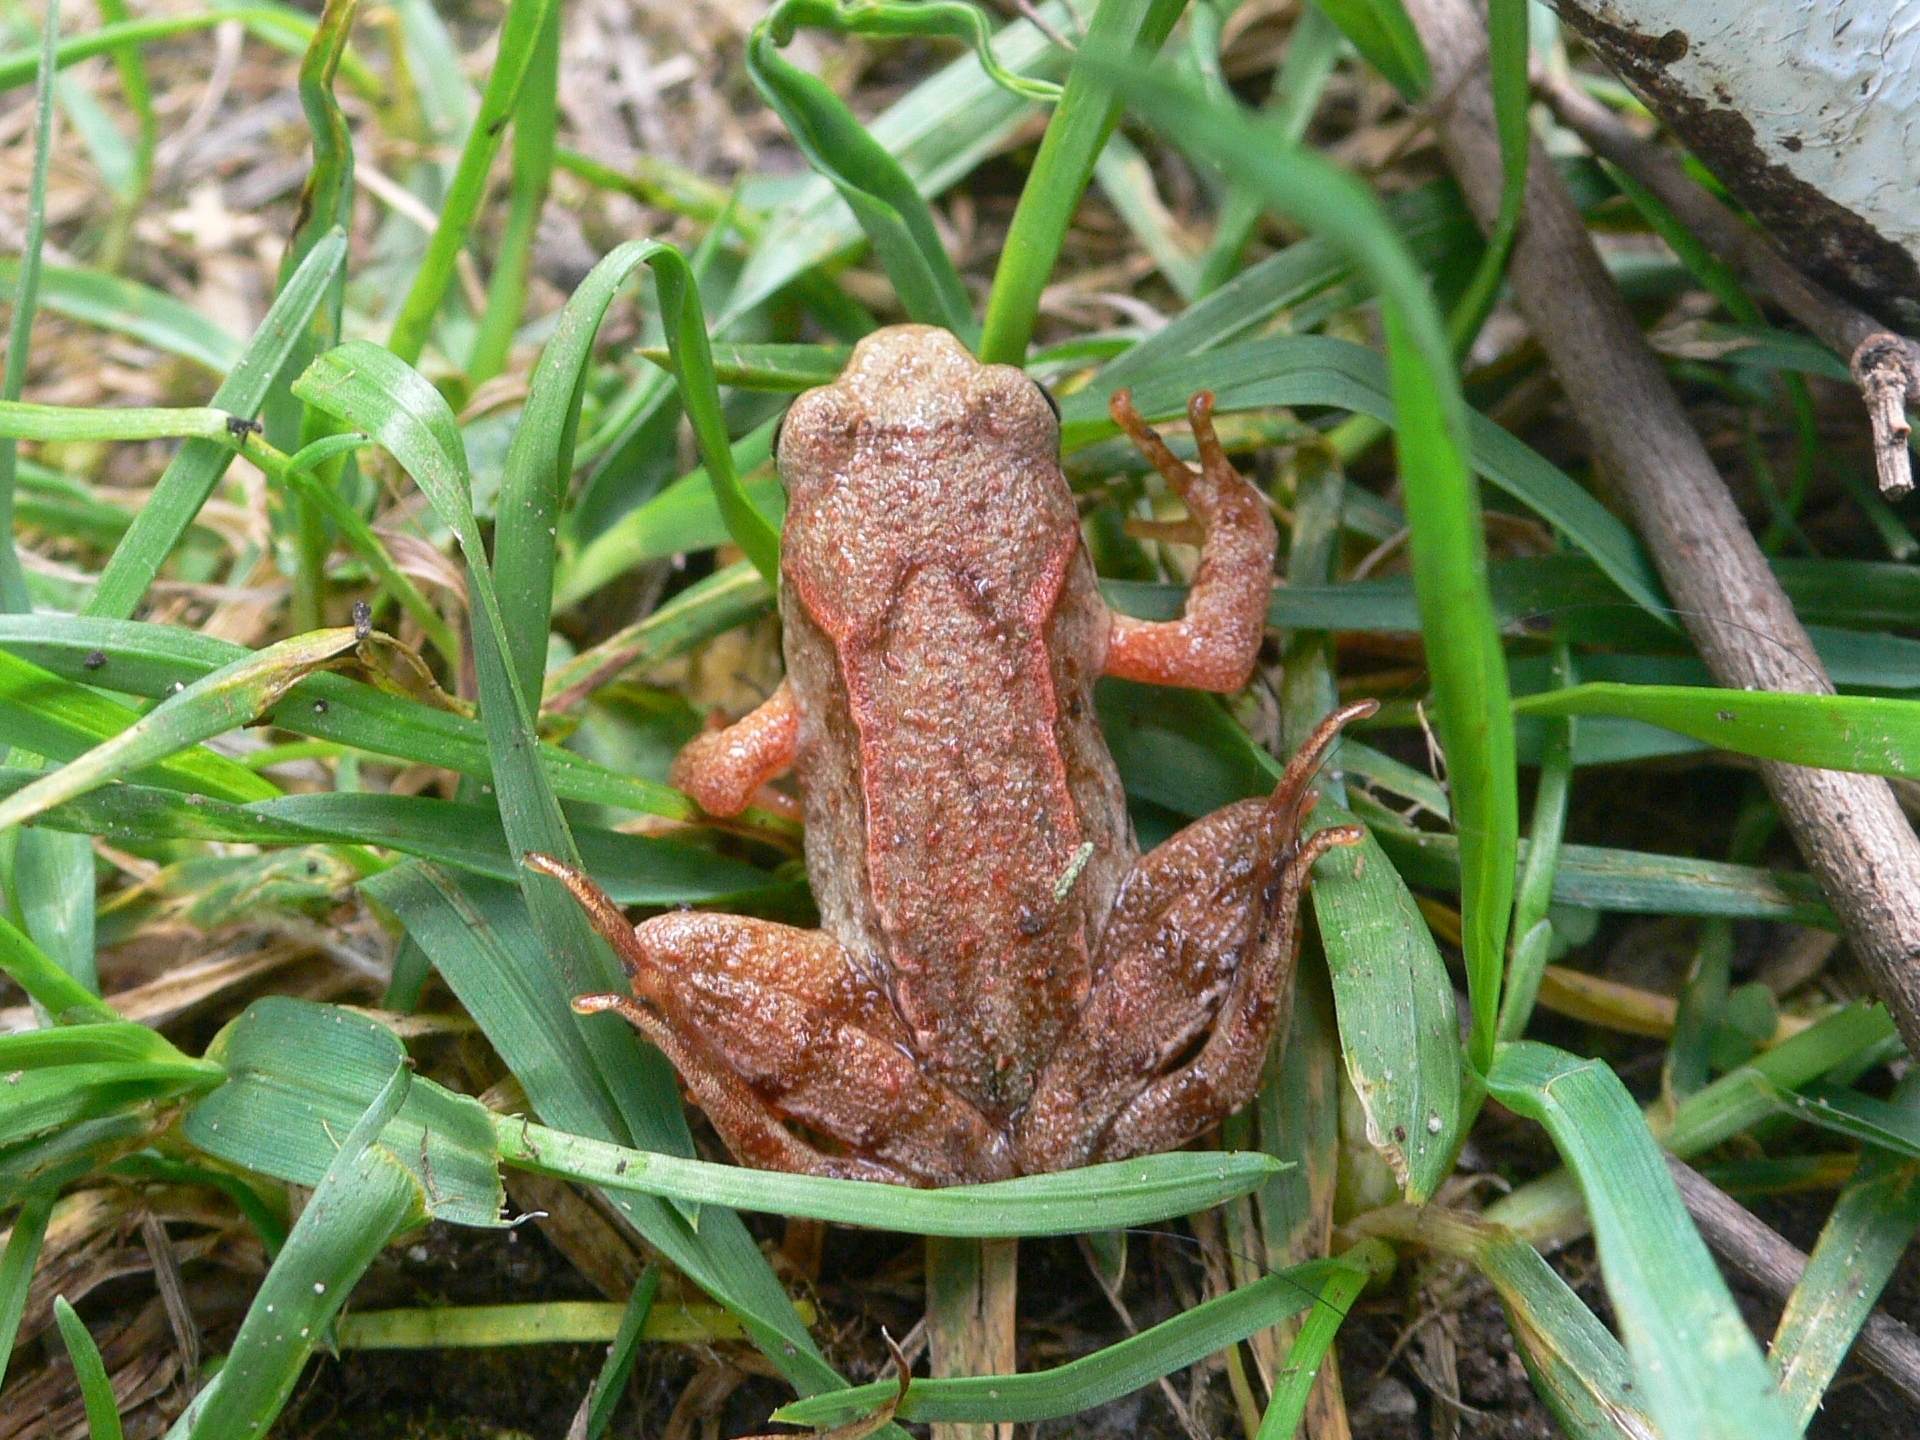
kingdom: Animalia
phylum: Chordata
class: Amphibia
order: Anura
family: Ranidae
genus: Rana
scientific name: Rana temporaria
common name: Common frog
